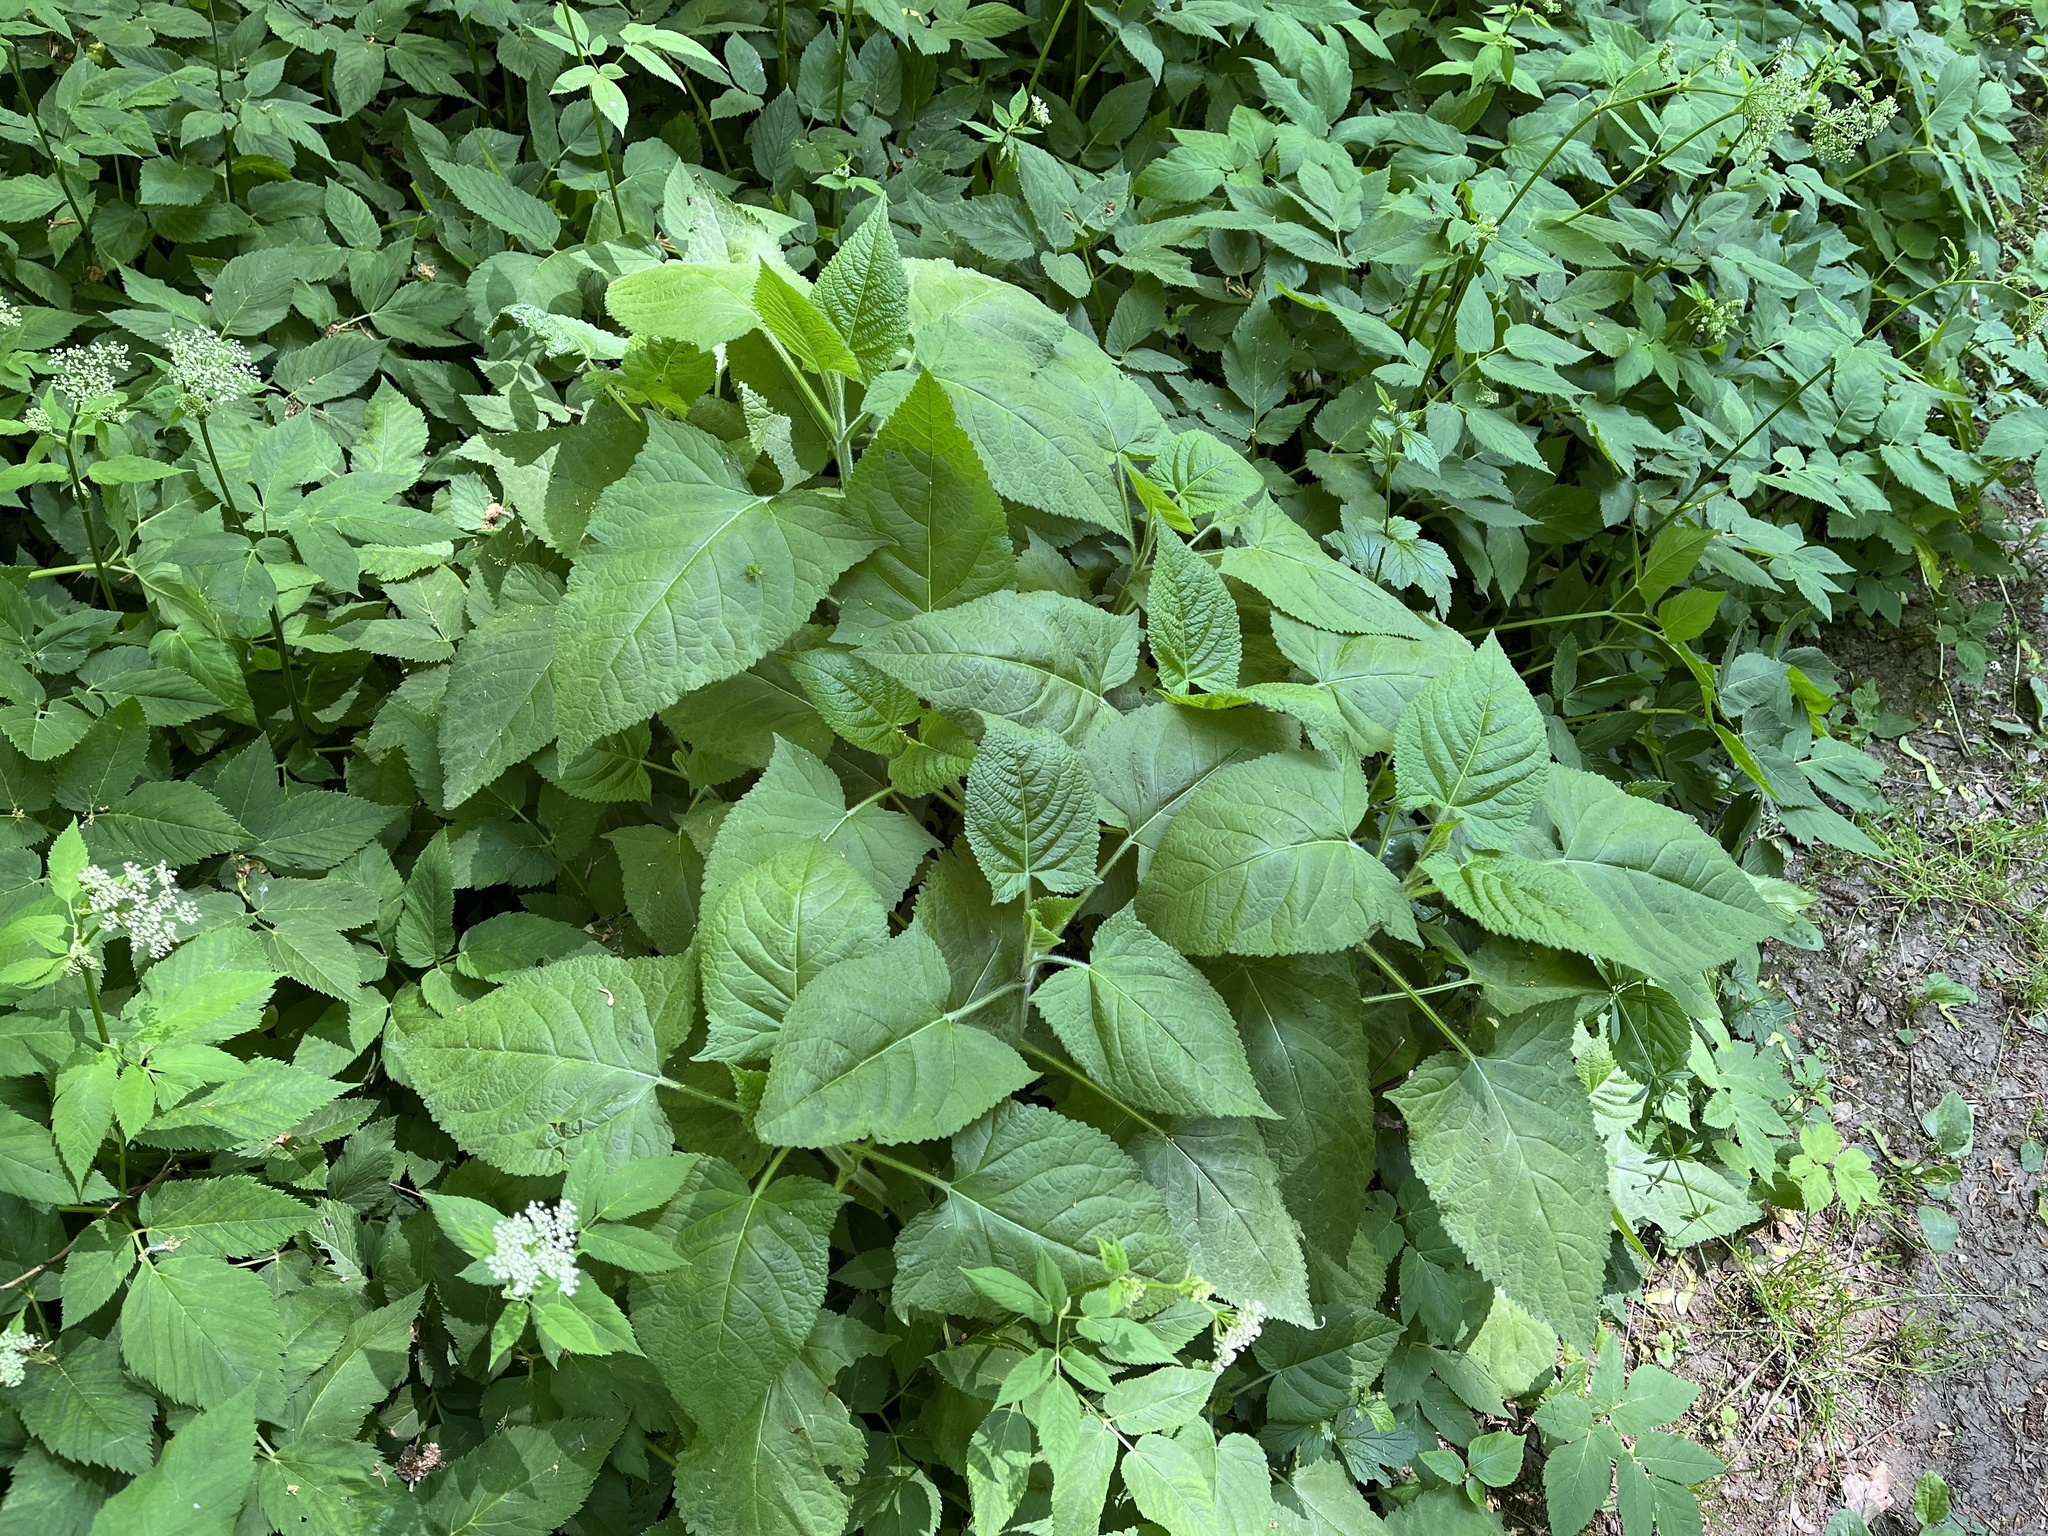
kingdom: Plantae
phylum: Tracheophyta
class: Magnoliopsida
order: Lamiales
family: Lamiaceae
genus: Salvia
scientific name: Salvia glutinosa
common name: Sticky clary
